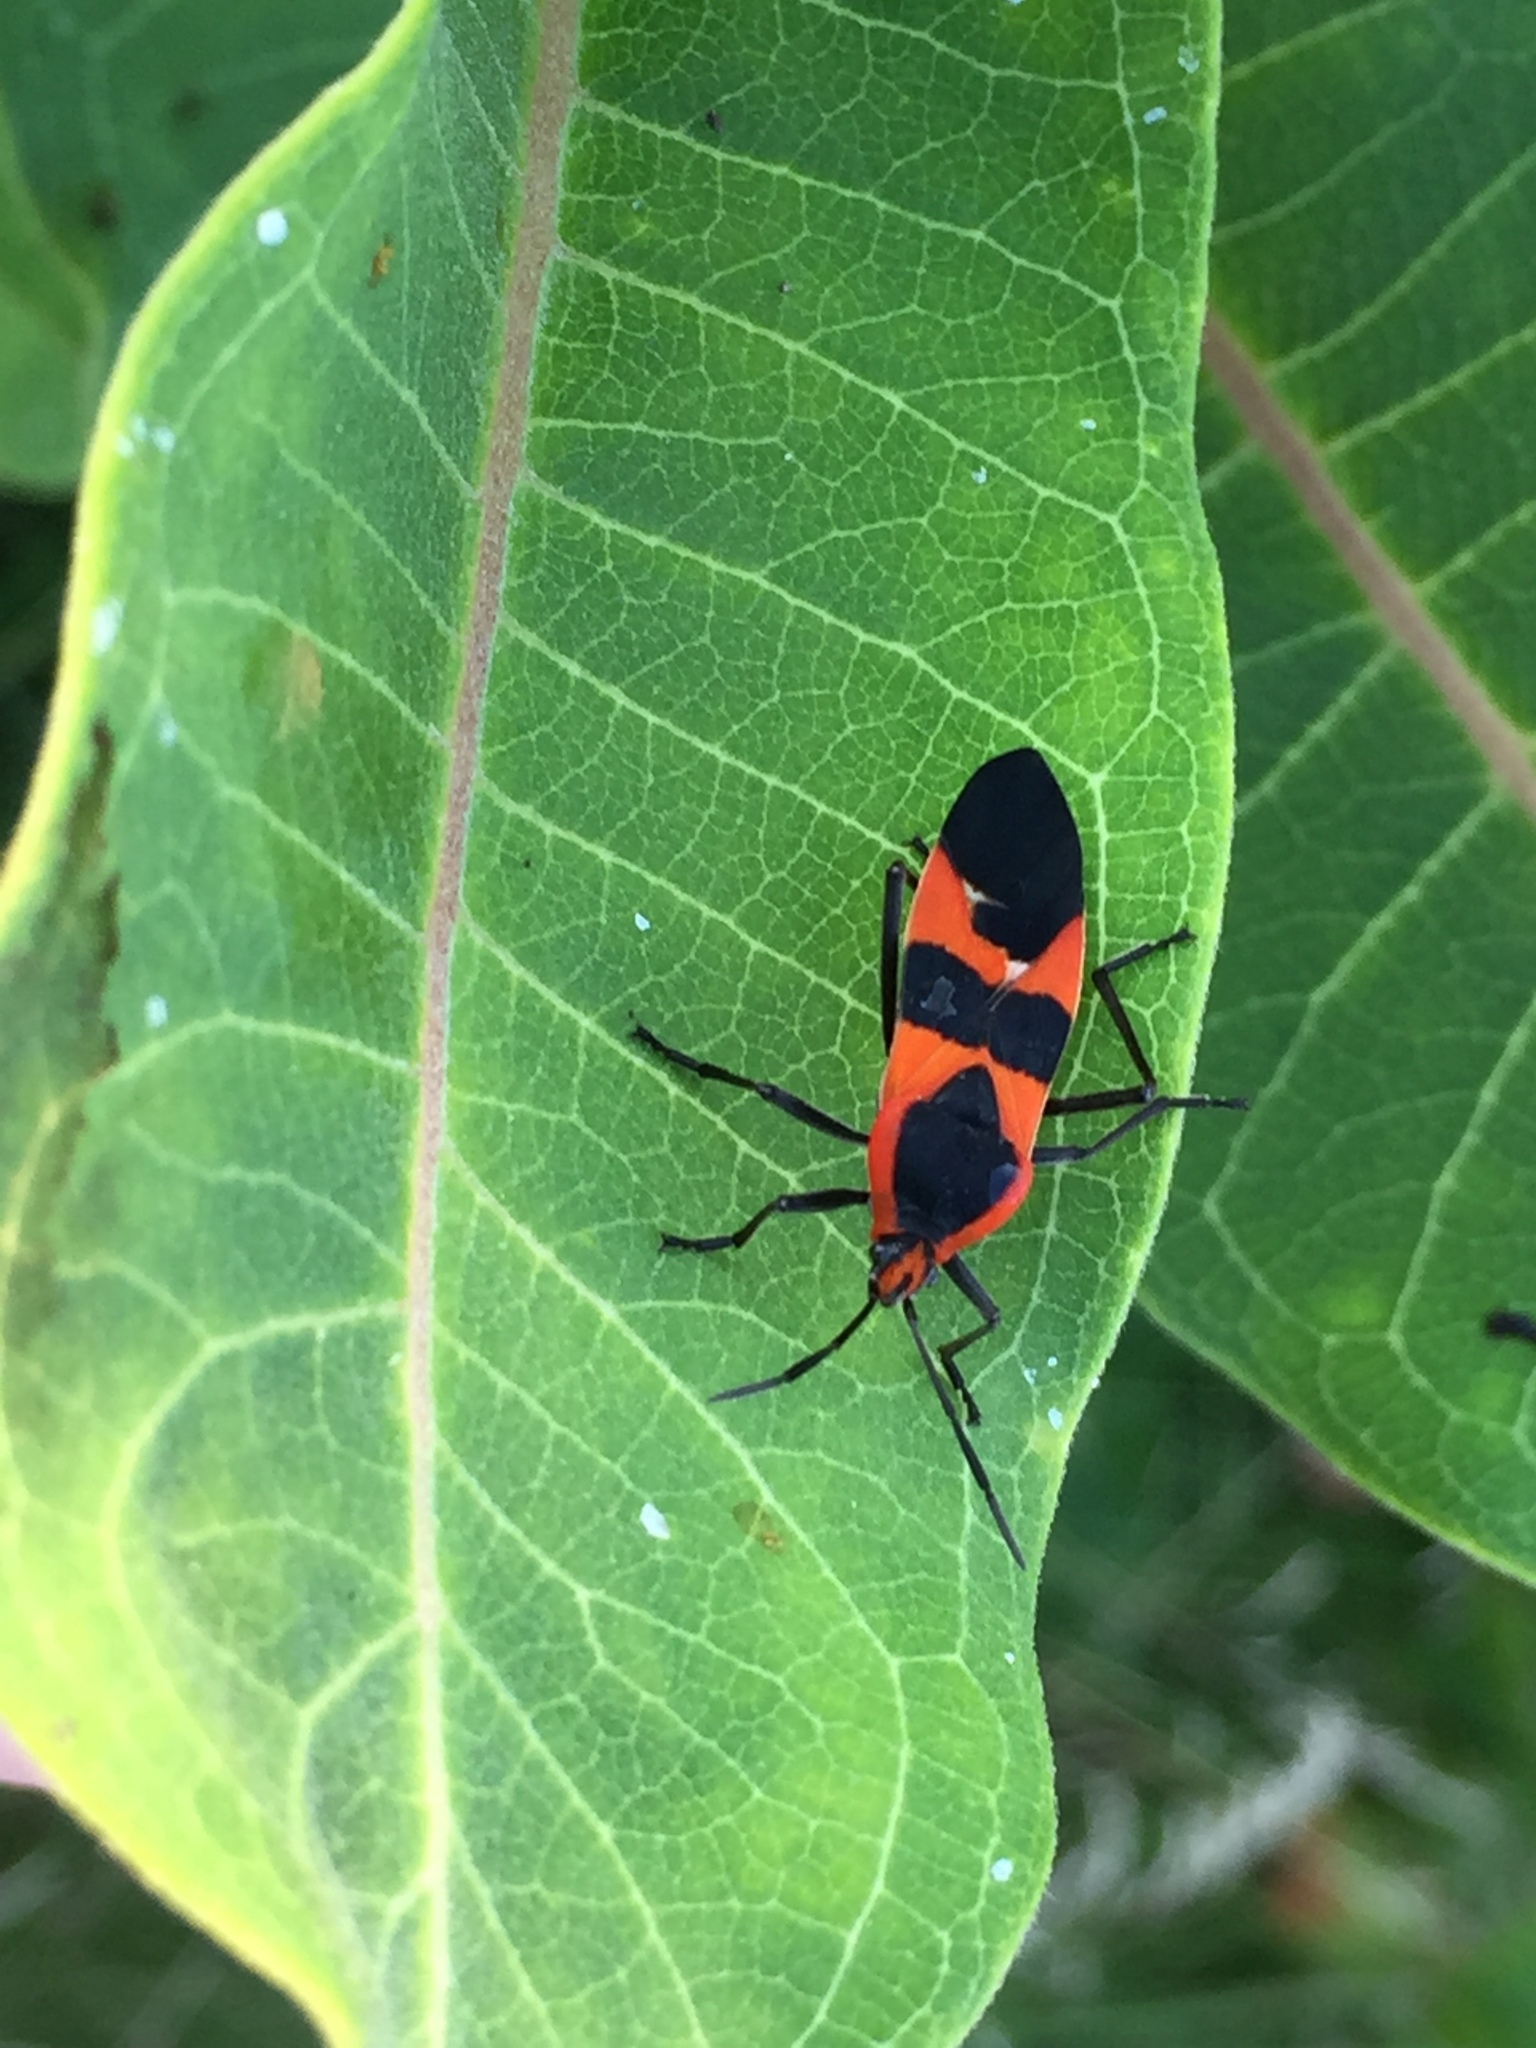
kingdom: Animalia
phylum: Arthropoda
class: Insecta
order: Hemiptera
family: Lygaeidae
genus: Oncopeltus
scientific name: Oncopeltus fasciatus
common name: Large milkweed bug
